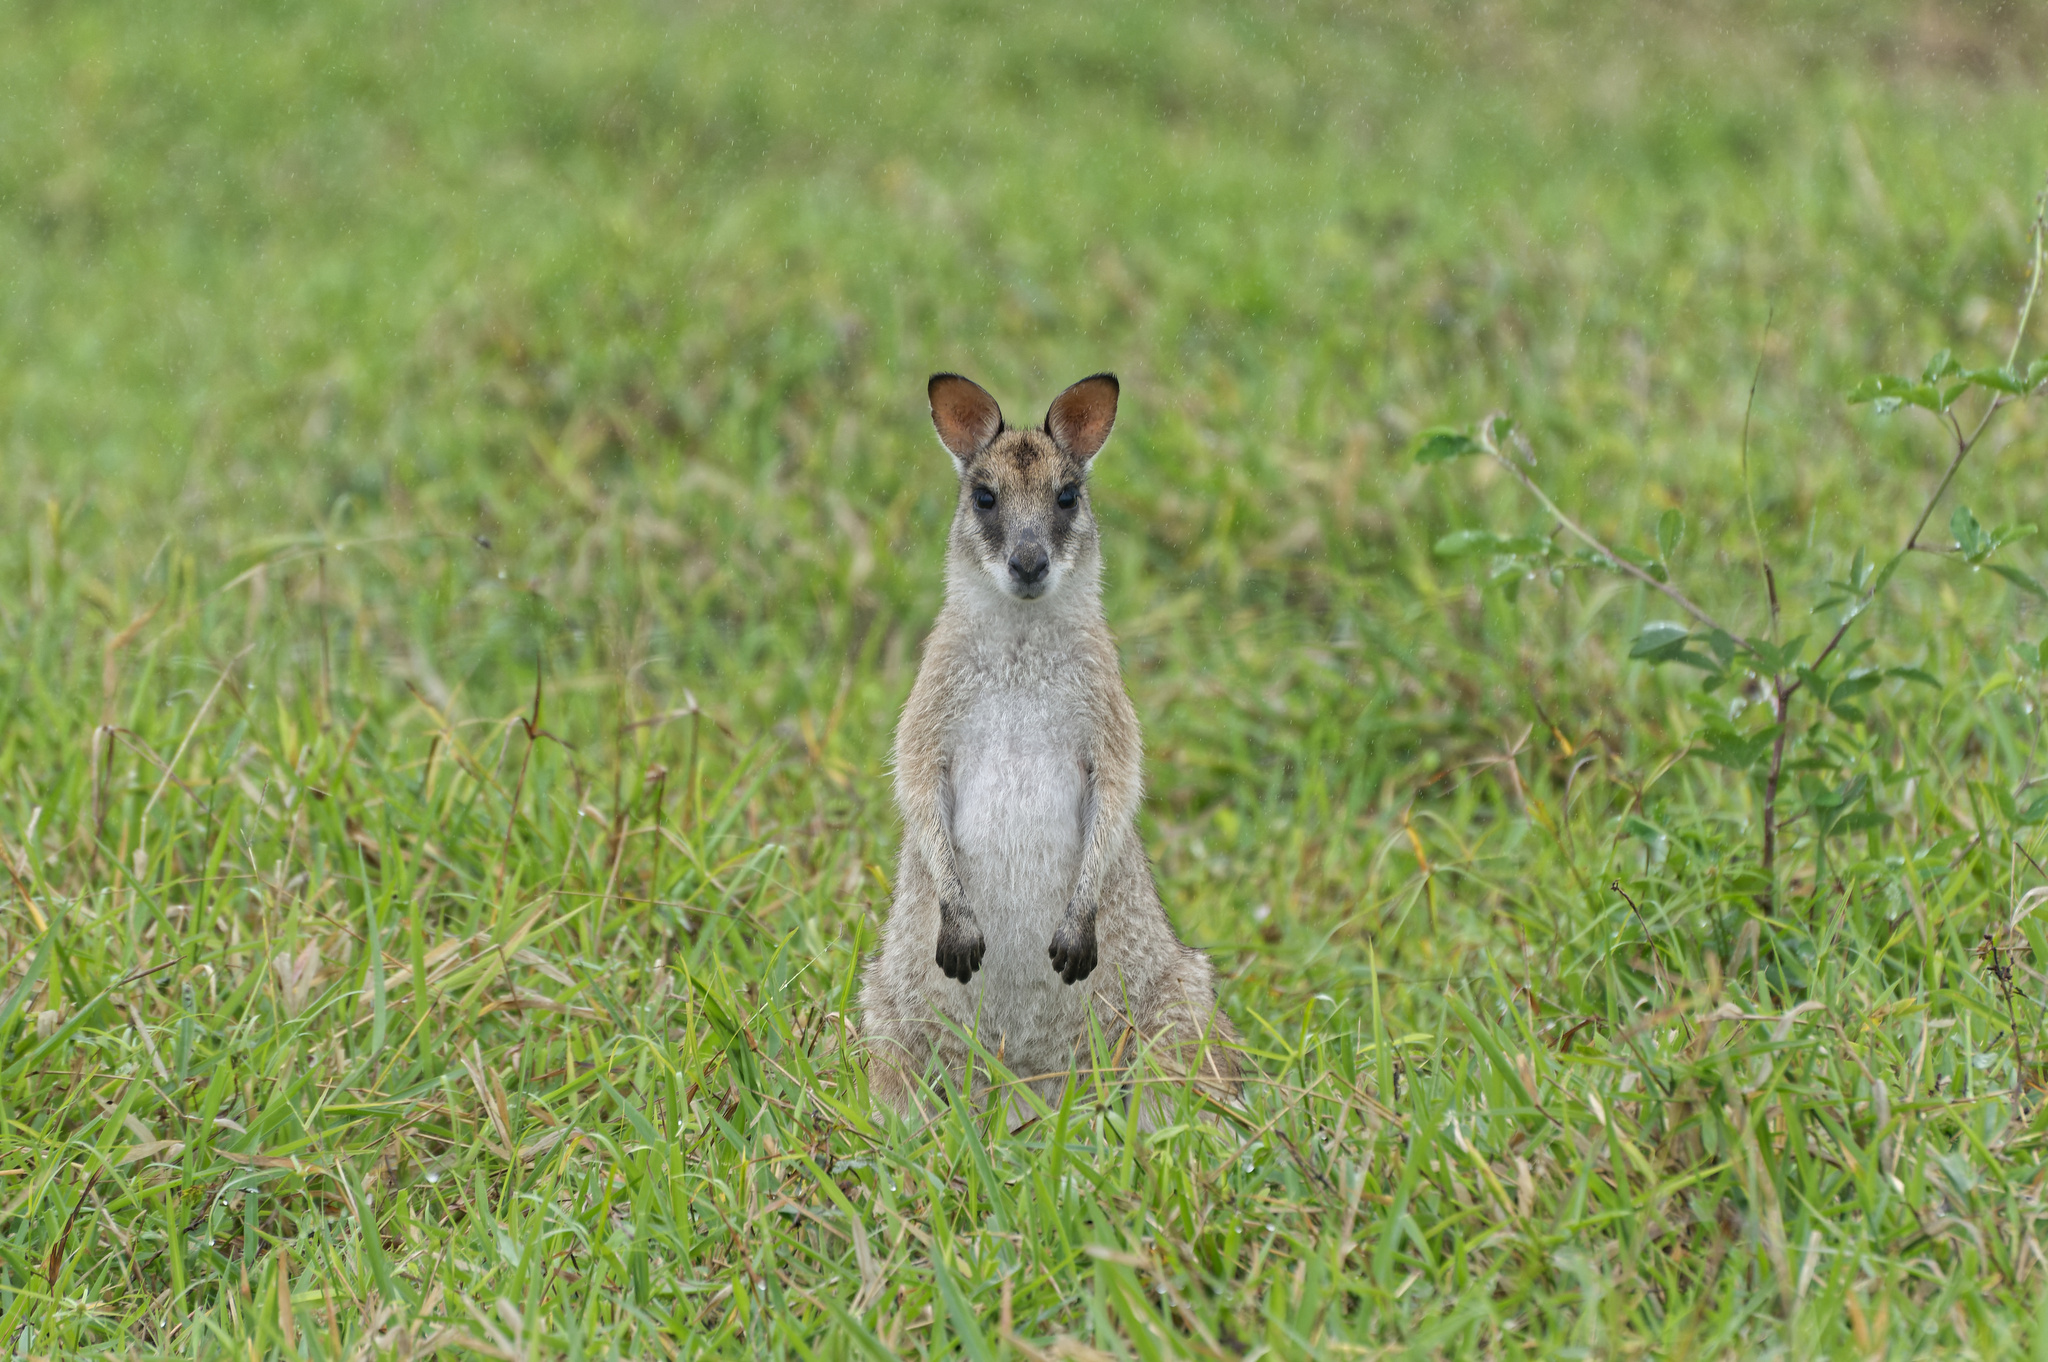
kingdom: Animalia
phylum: Chordata
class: Mammalia
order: Diprotodontia
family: Macropodidae
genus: Macropus
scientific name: Macropus agilis
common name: Agile wallaby
